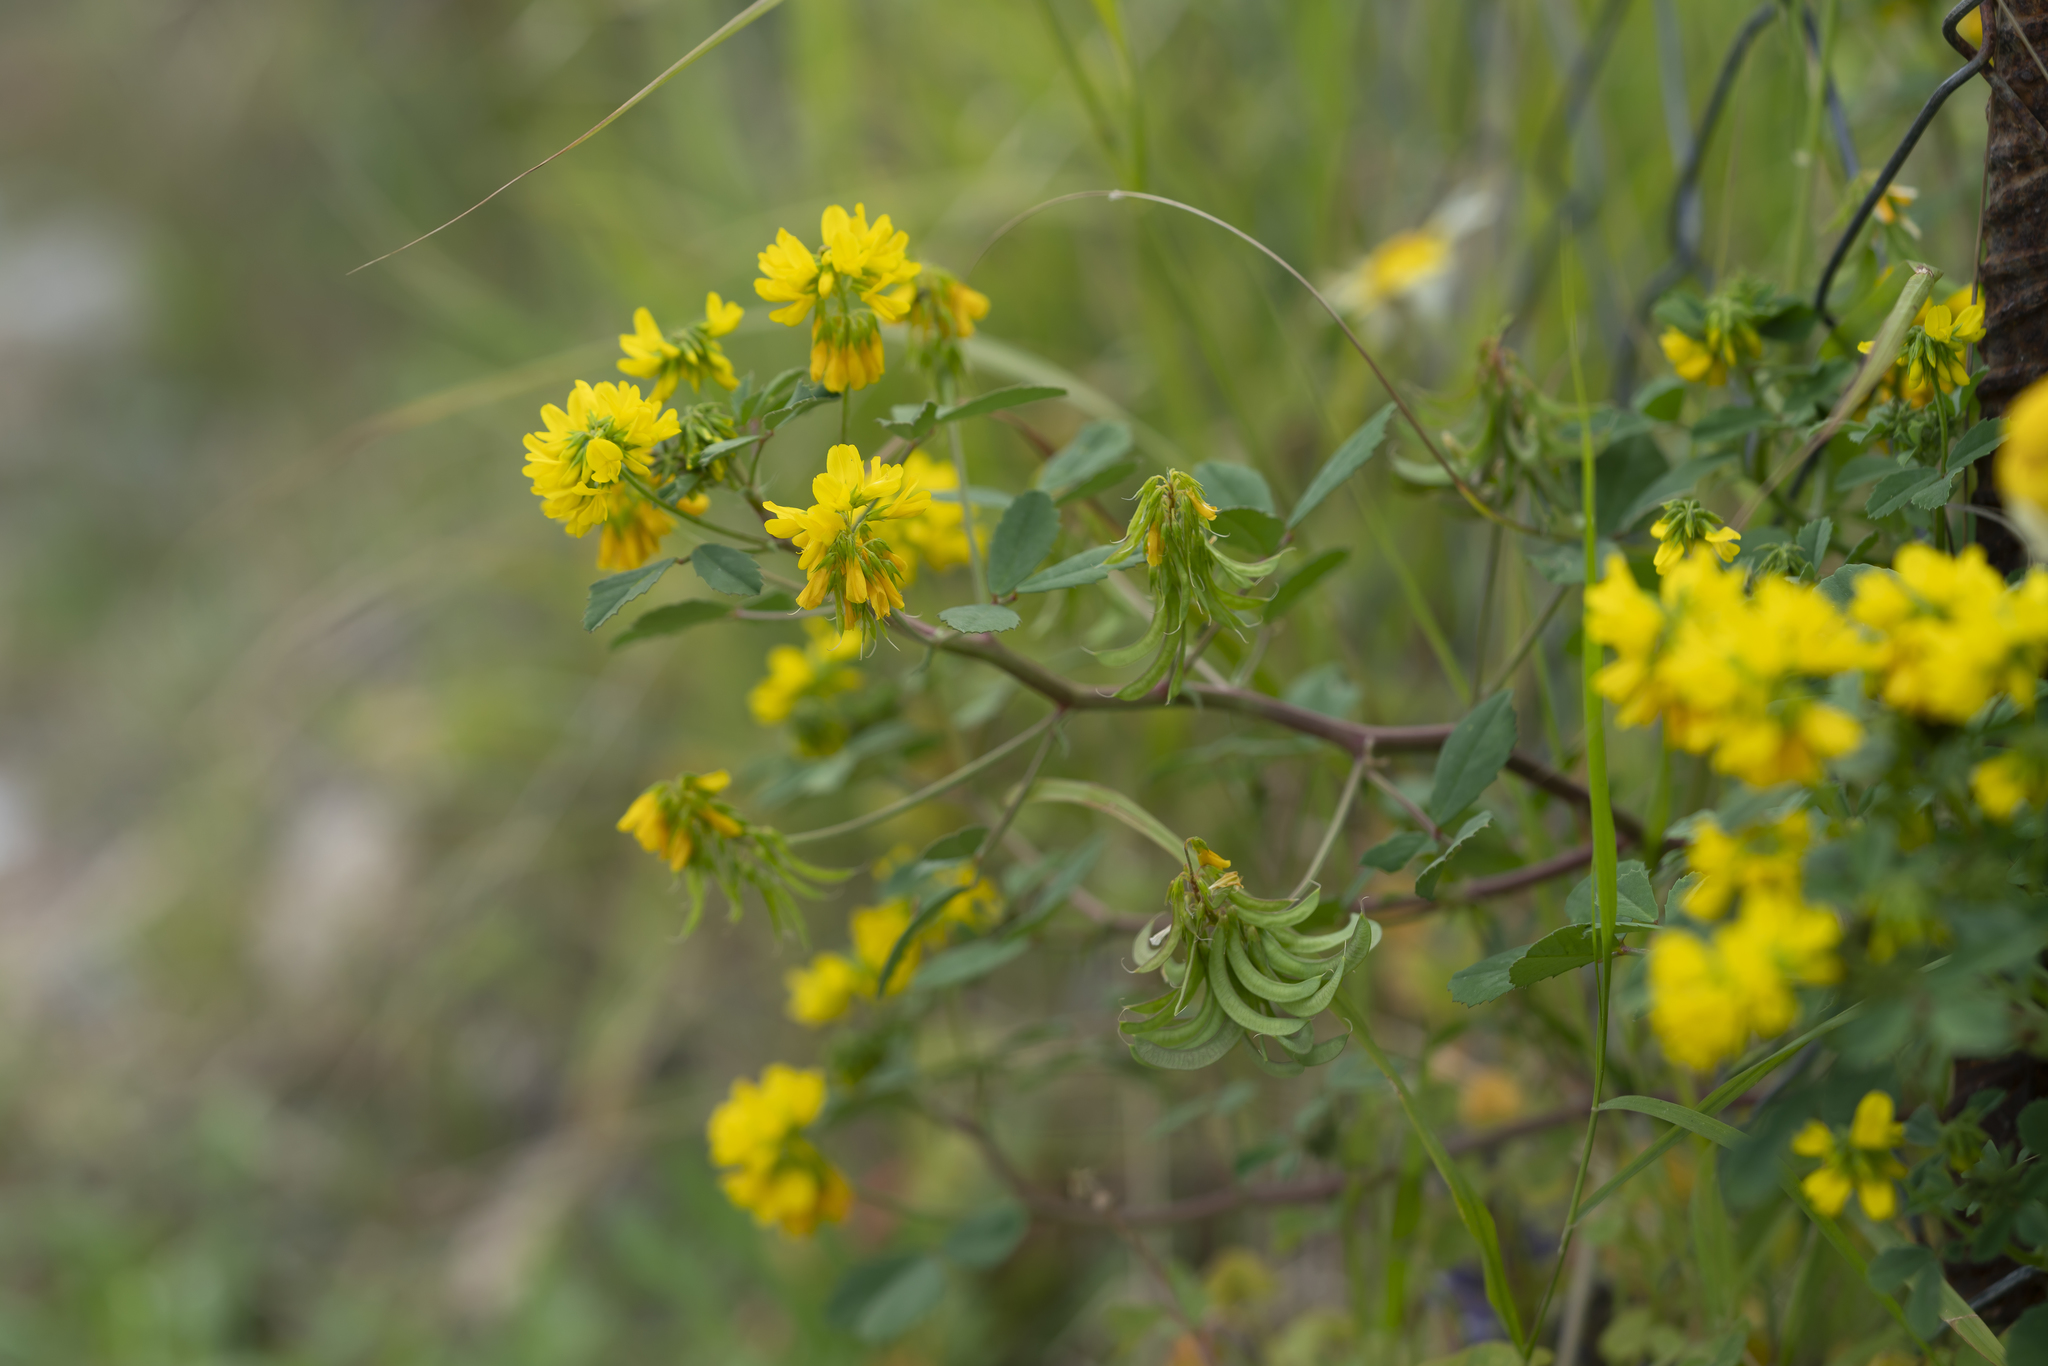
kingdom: Plantae
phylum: Tracheophyta
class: Magnoliopsida
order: Fabales
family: Fabaceae
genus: Trigonella
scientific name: Trigonella balansae
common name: Sickle-fruited fenugreek
